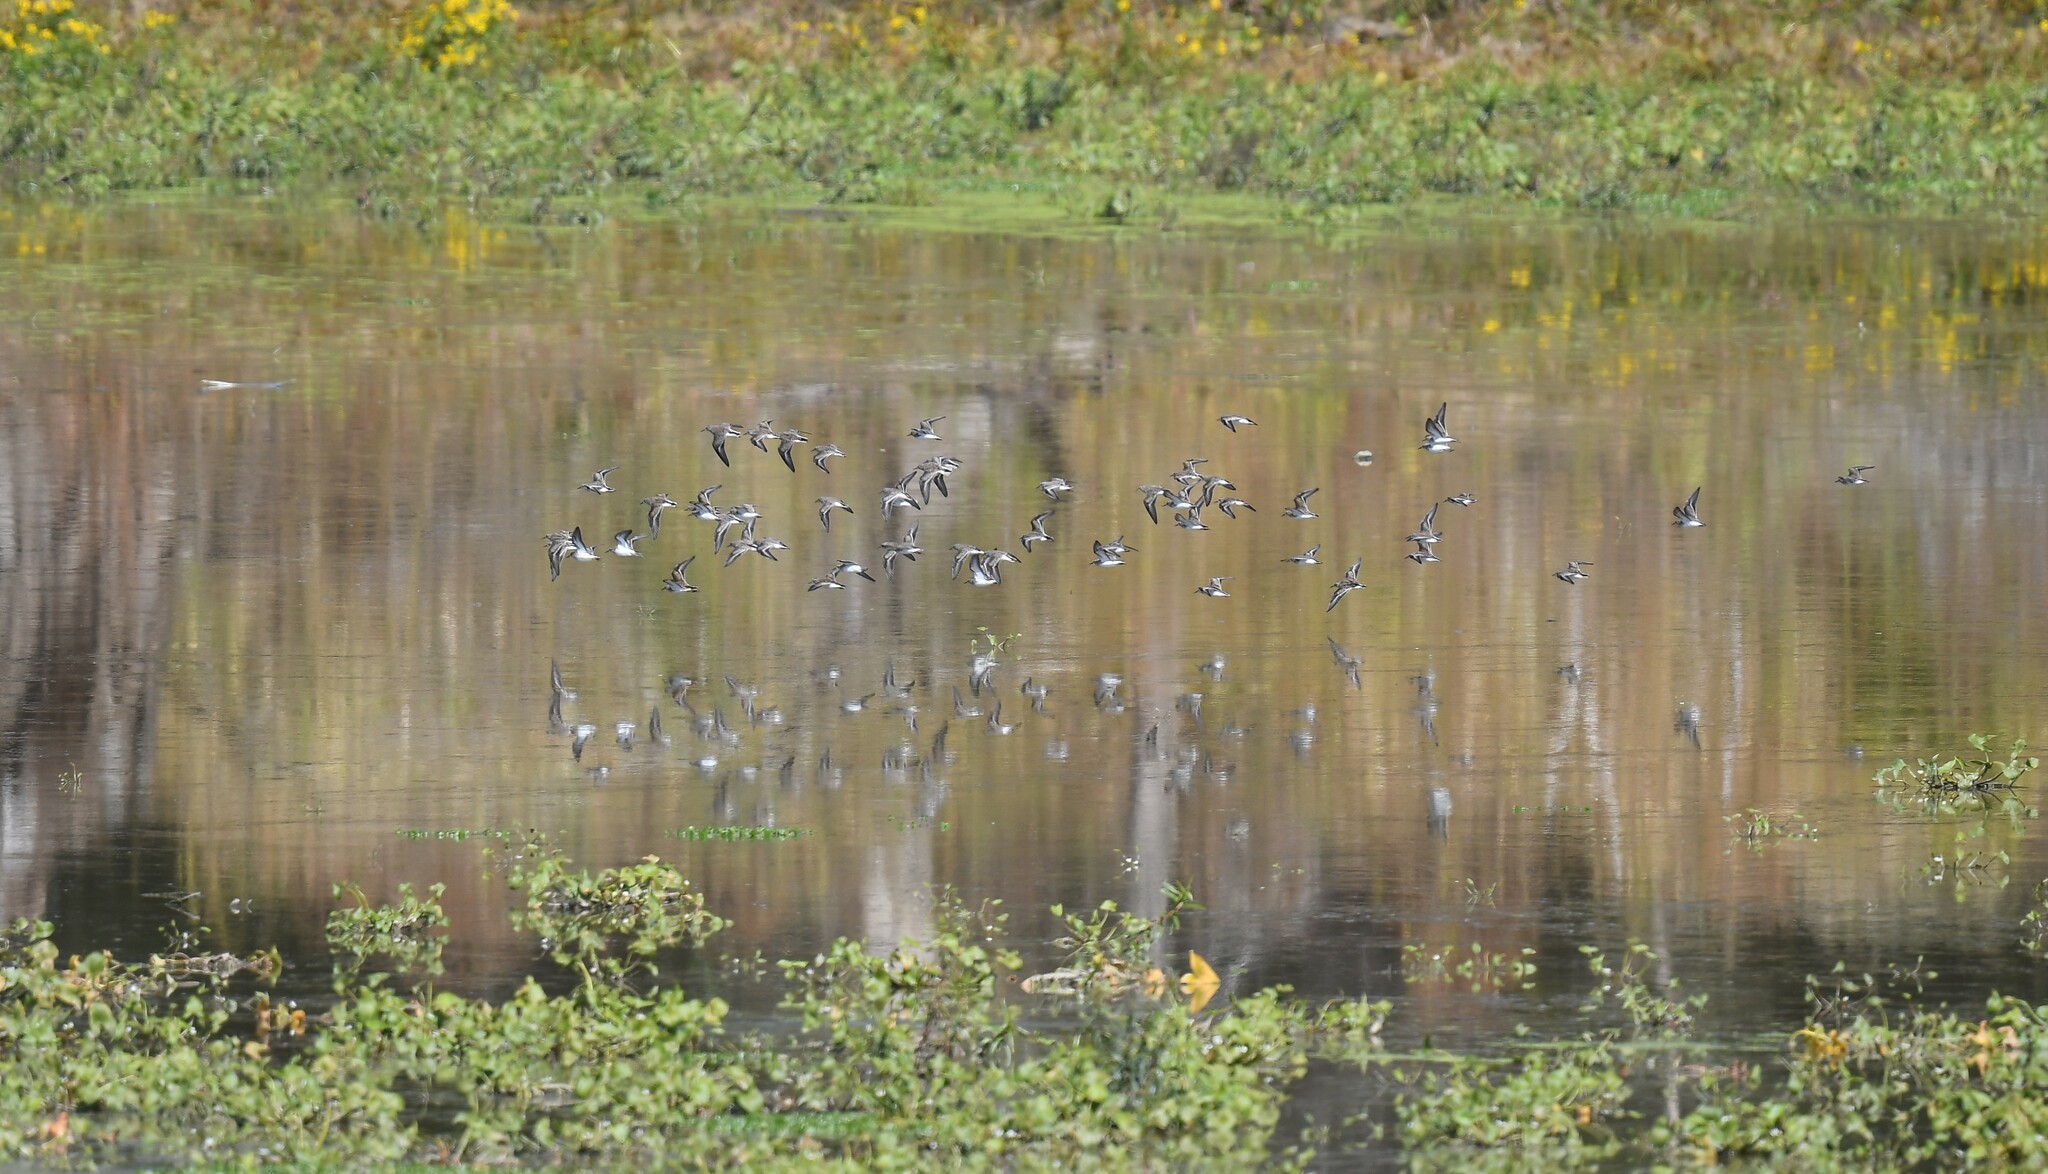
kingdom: Animalia
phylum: Chordata
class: Aves
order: Charadriiformes
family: Scolopacidae
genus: Calidris
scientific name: Calidris minutilla
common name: Least sandpiper
